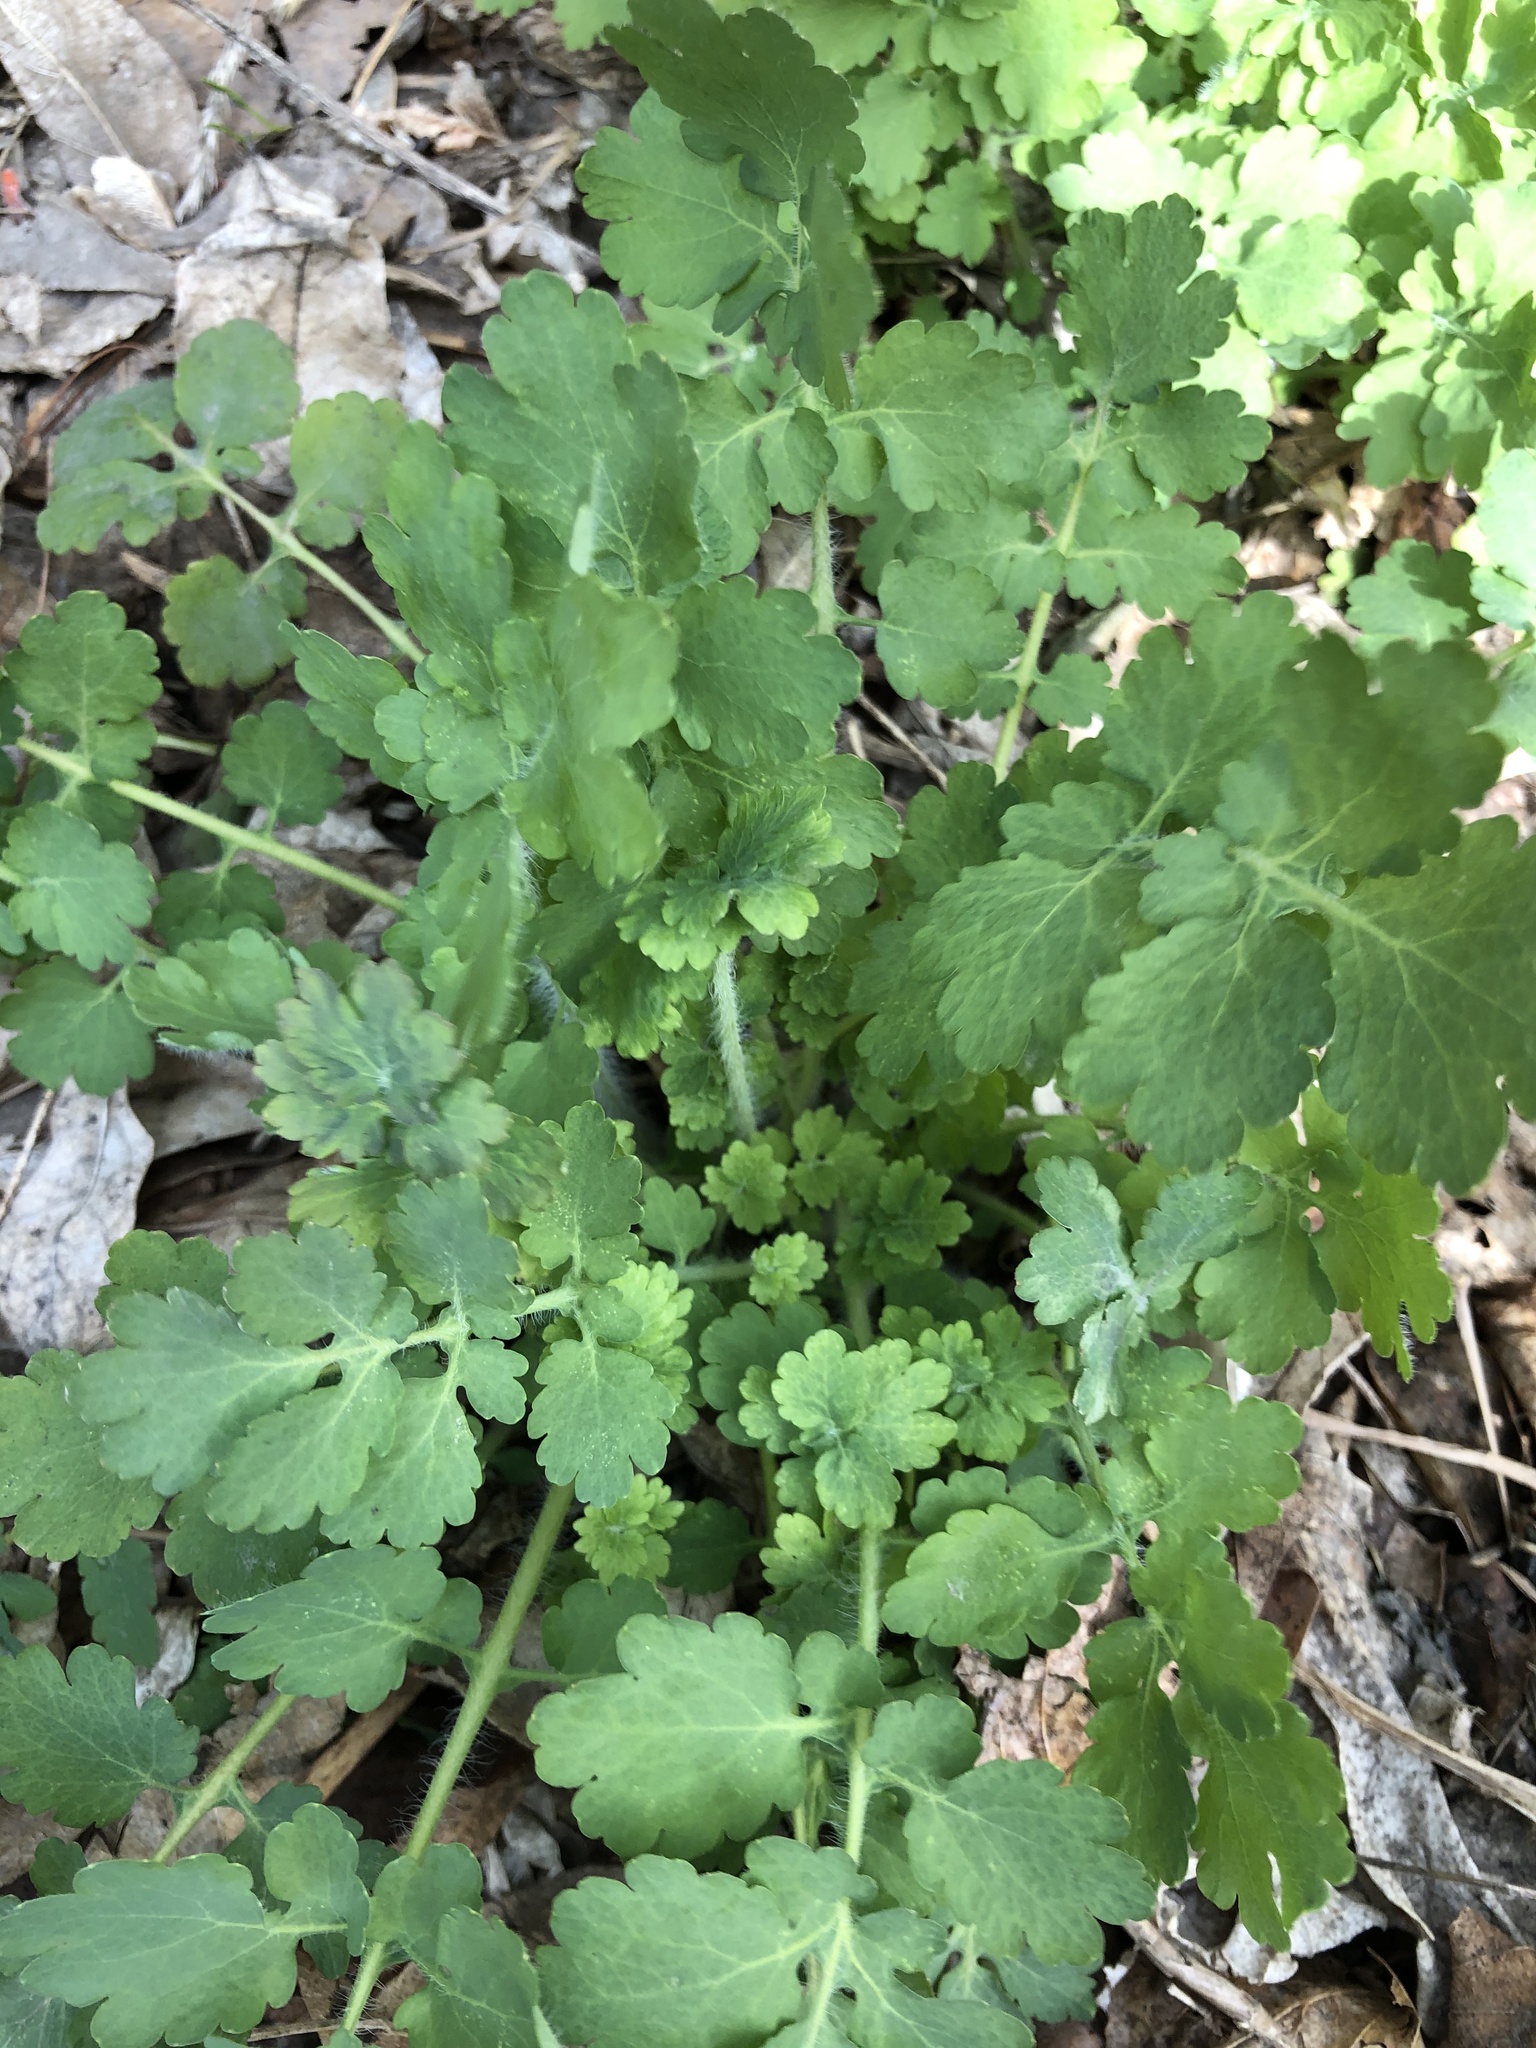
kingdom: Plantae
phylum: Tracheophyta
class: Magnoliopsida
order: Ranunculales
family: Papaveraceae
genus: Chelidonium
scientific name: Chelidonium majus
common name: Greater celandine
